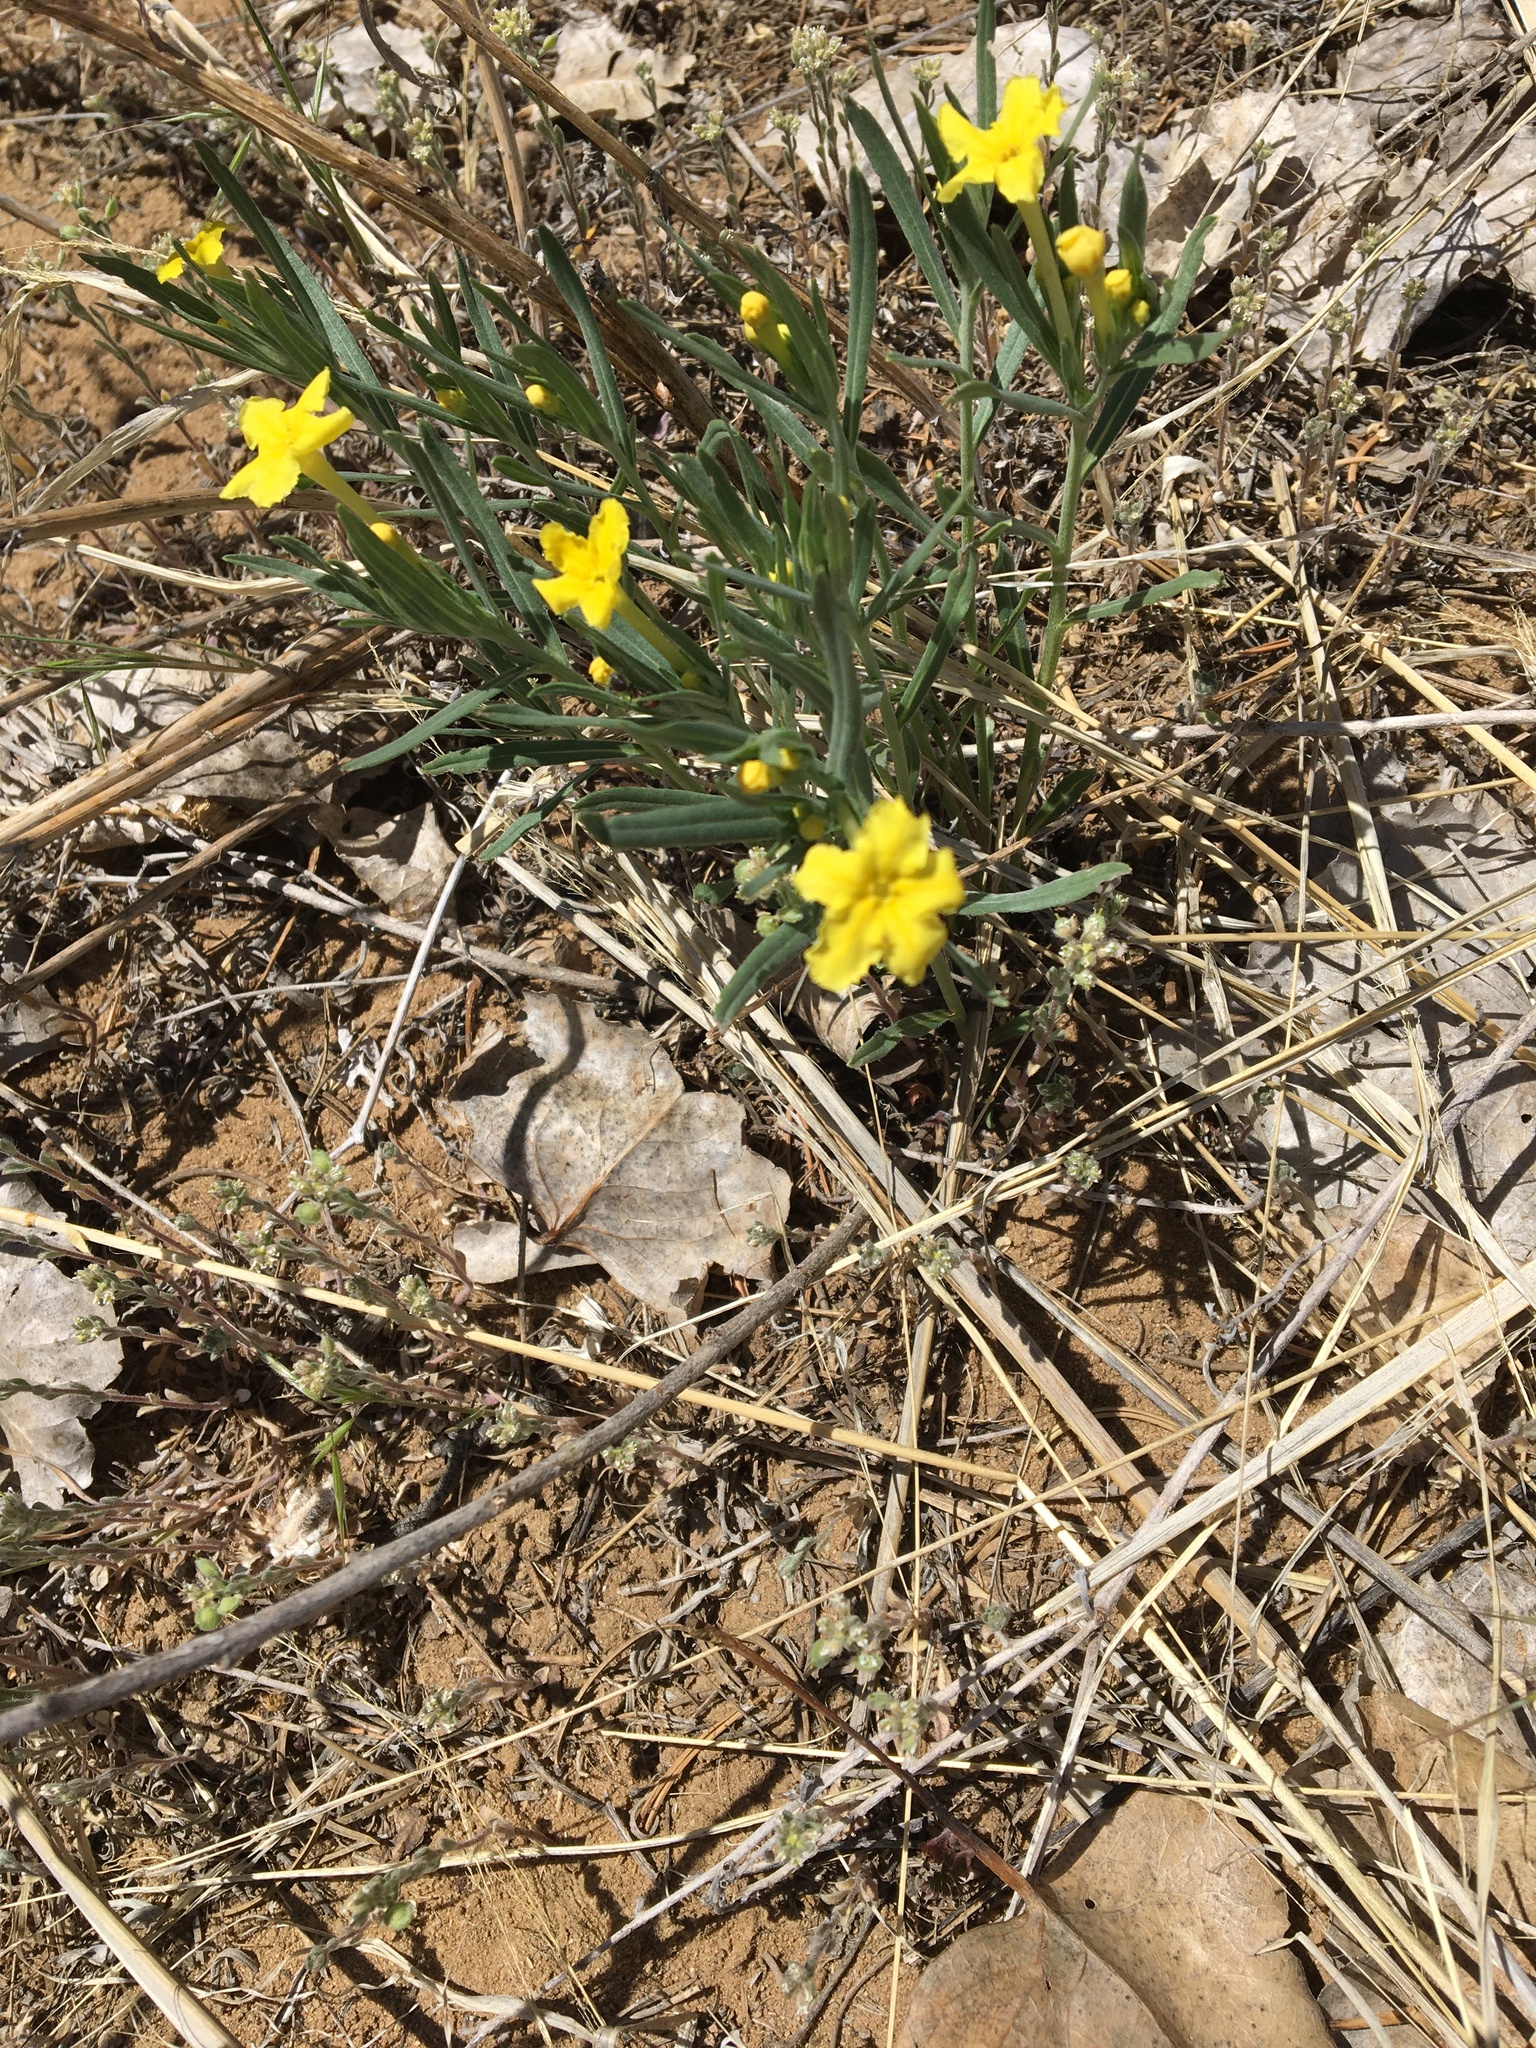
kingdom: Plantae
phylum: Tracheophyta
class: Magnoliopsida
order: Boraginales
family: Boraginaceae
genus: Lithospermum
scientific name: Lithospermum incisum
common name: Fringed gromwell
